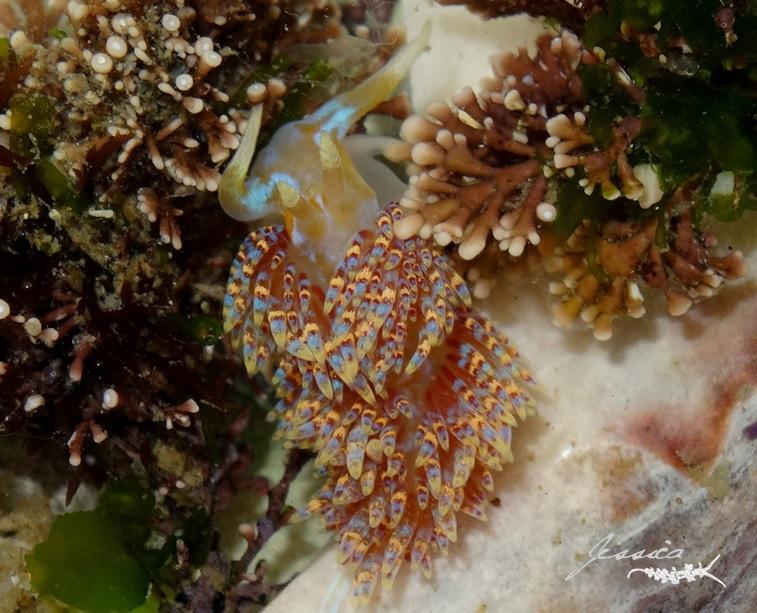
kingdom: Animalia
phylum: Mollusca
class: Gastropoda
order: Nudibranchia
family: Myrrhinidae
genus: Godiva
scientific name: Godiva quadricolor
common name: Four-colour nudibranch
